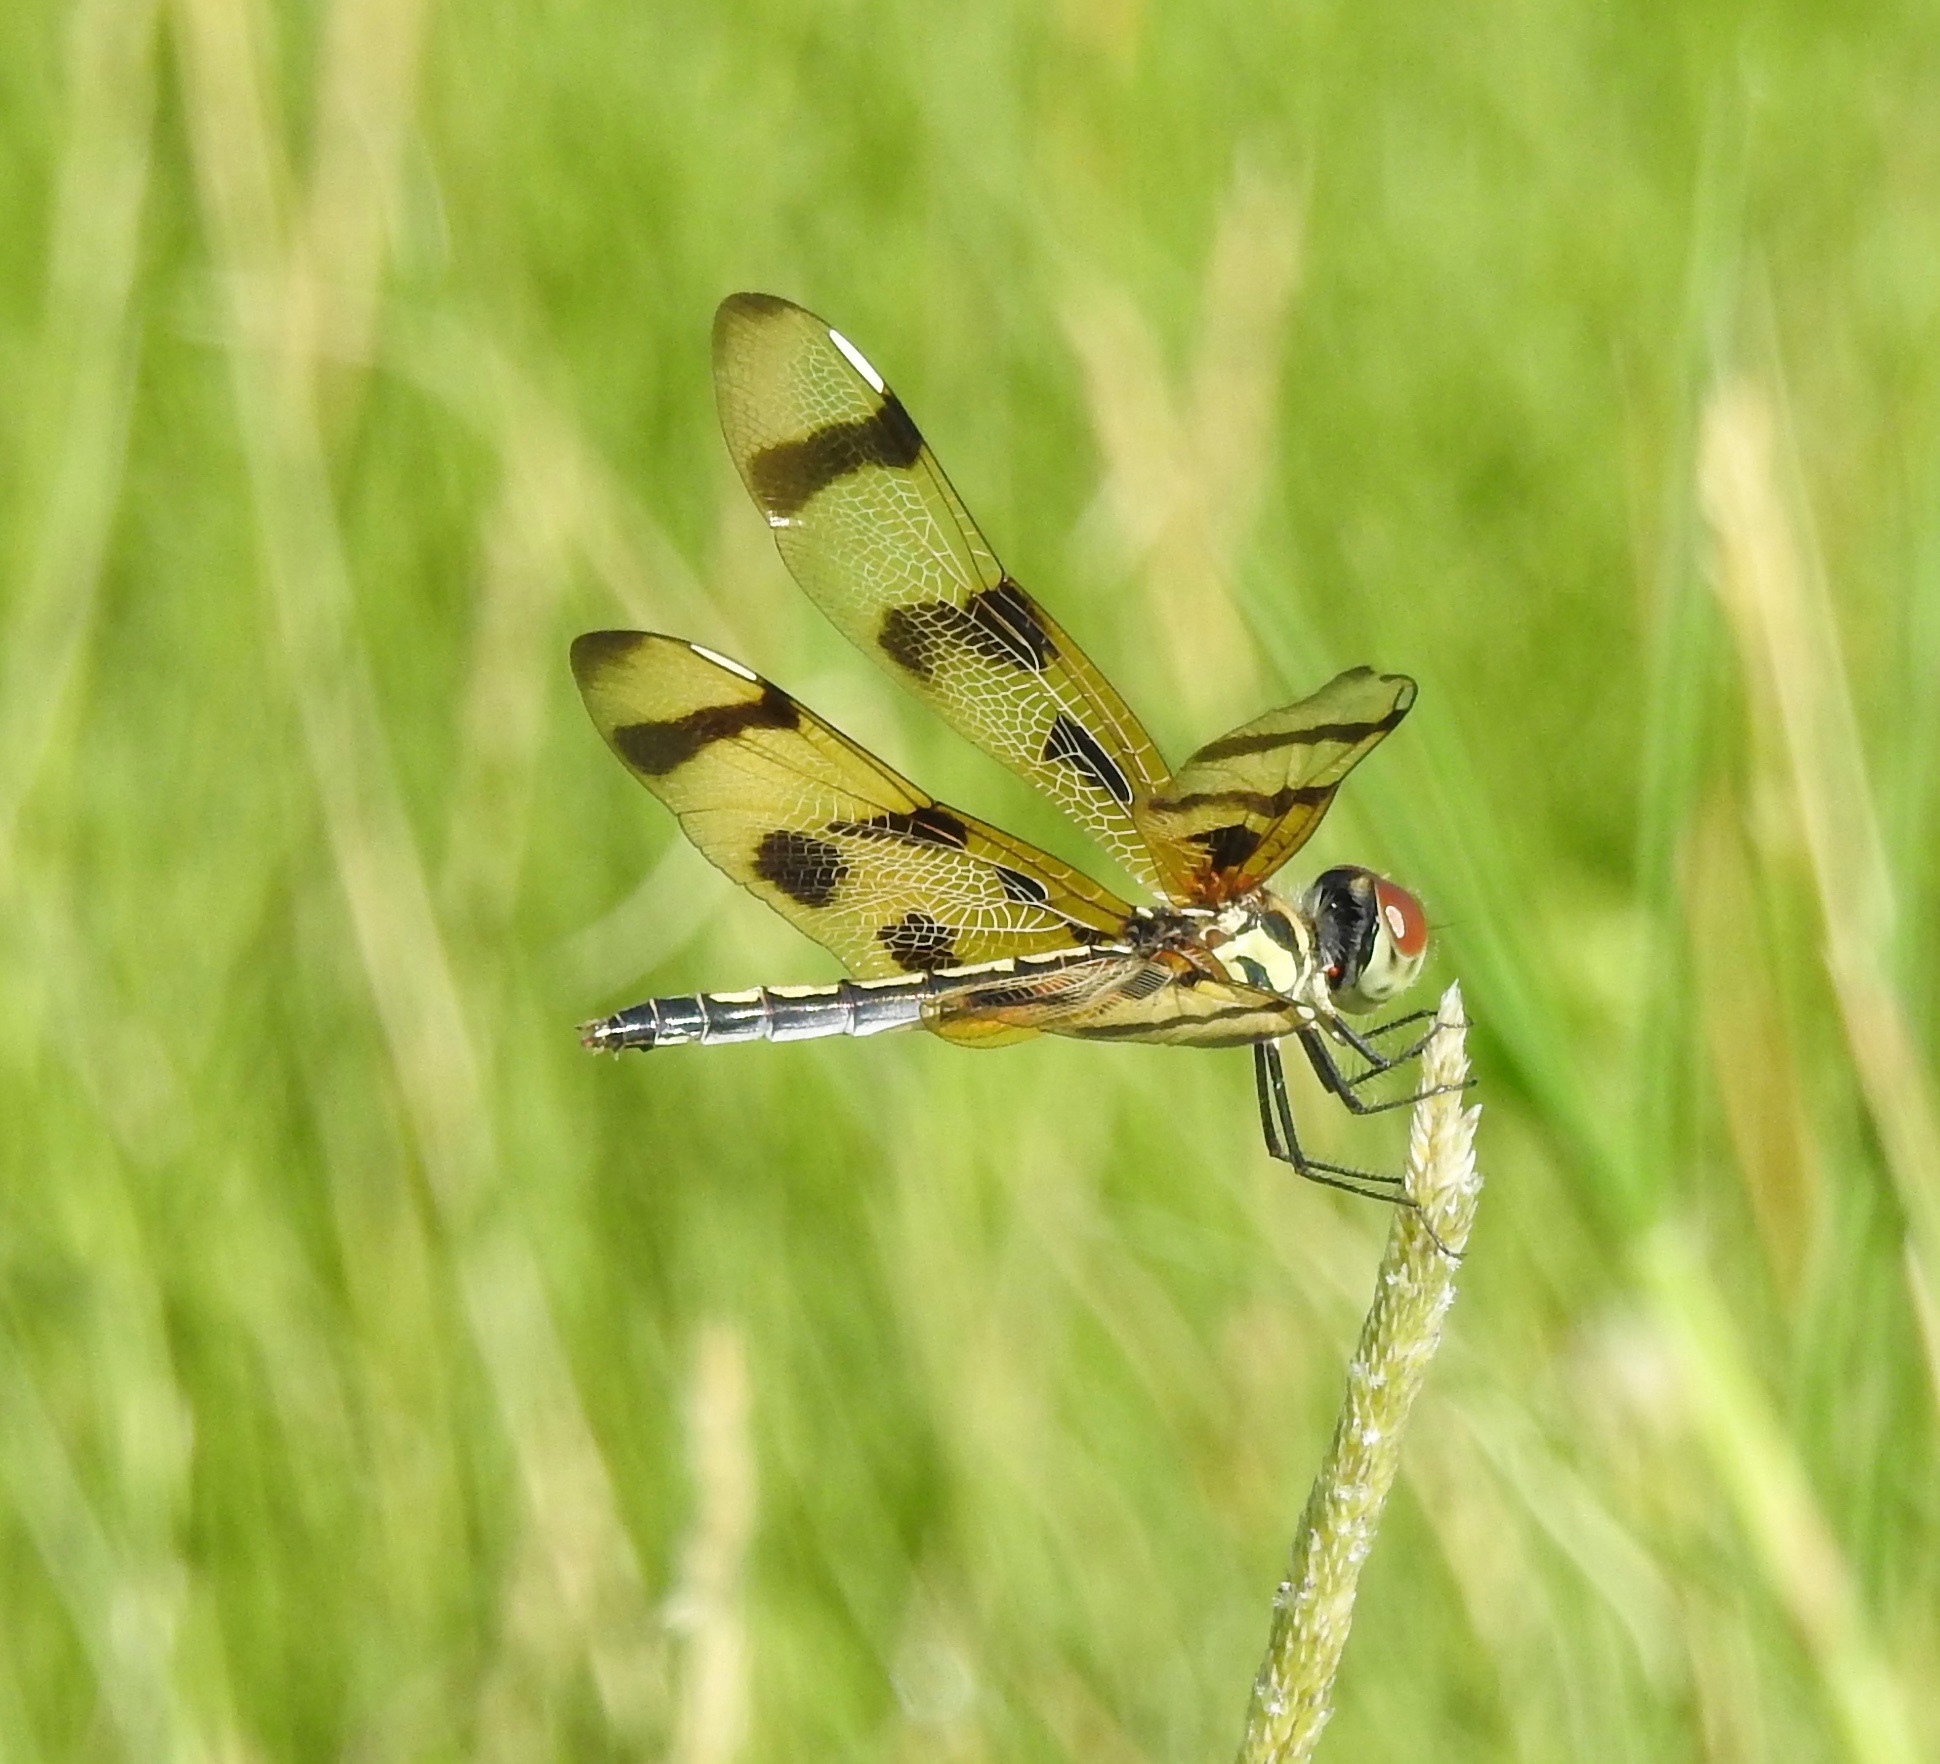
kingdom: Animalia
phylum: Arthropoda
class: Insecta
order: Odonata
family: Libellulidae
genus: Celithemis
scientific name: Celithemis eponina
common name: Halloween pennant
